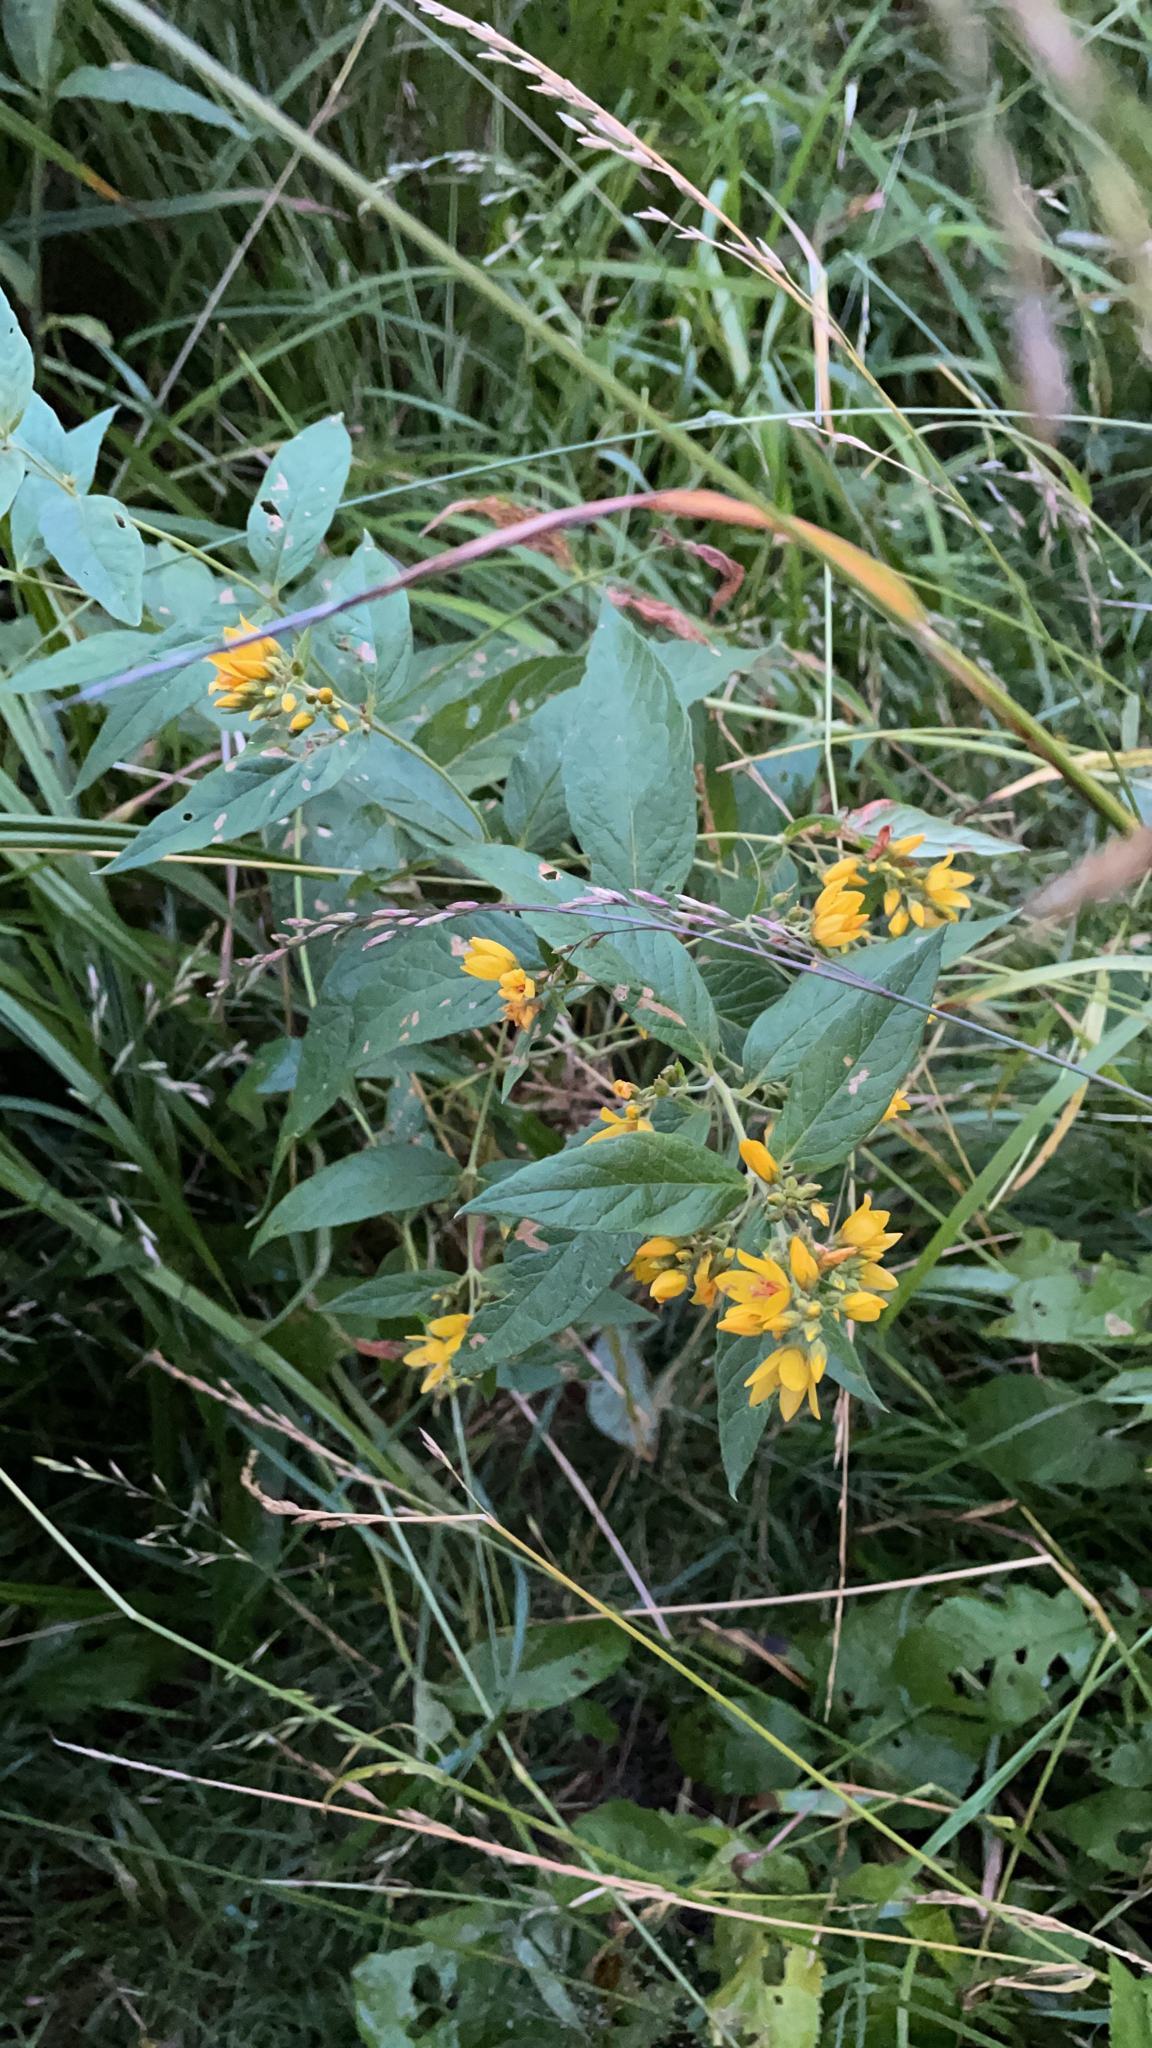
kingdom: Plantae
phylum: Tracheophyta
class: Magnoliopsida
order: Ericales
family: Primulaceae
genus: Lysimachia
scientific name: Lysimachia vulgaris
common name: Yellow loosestrife
